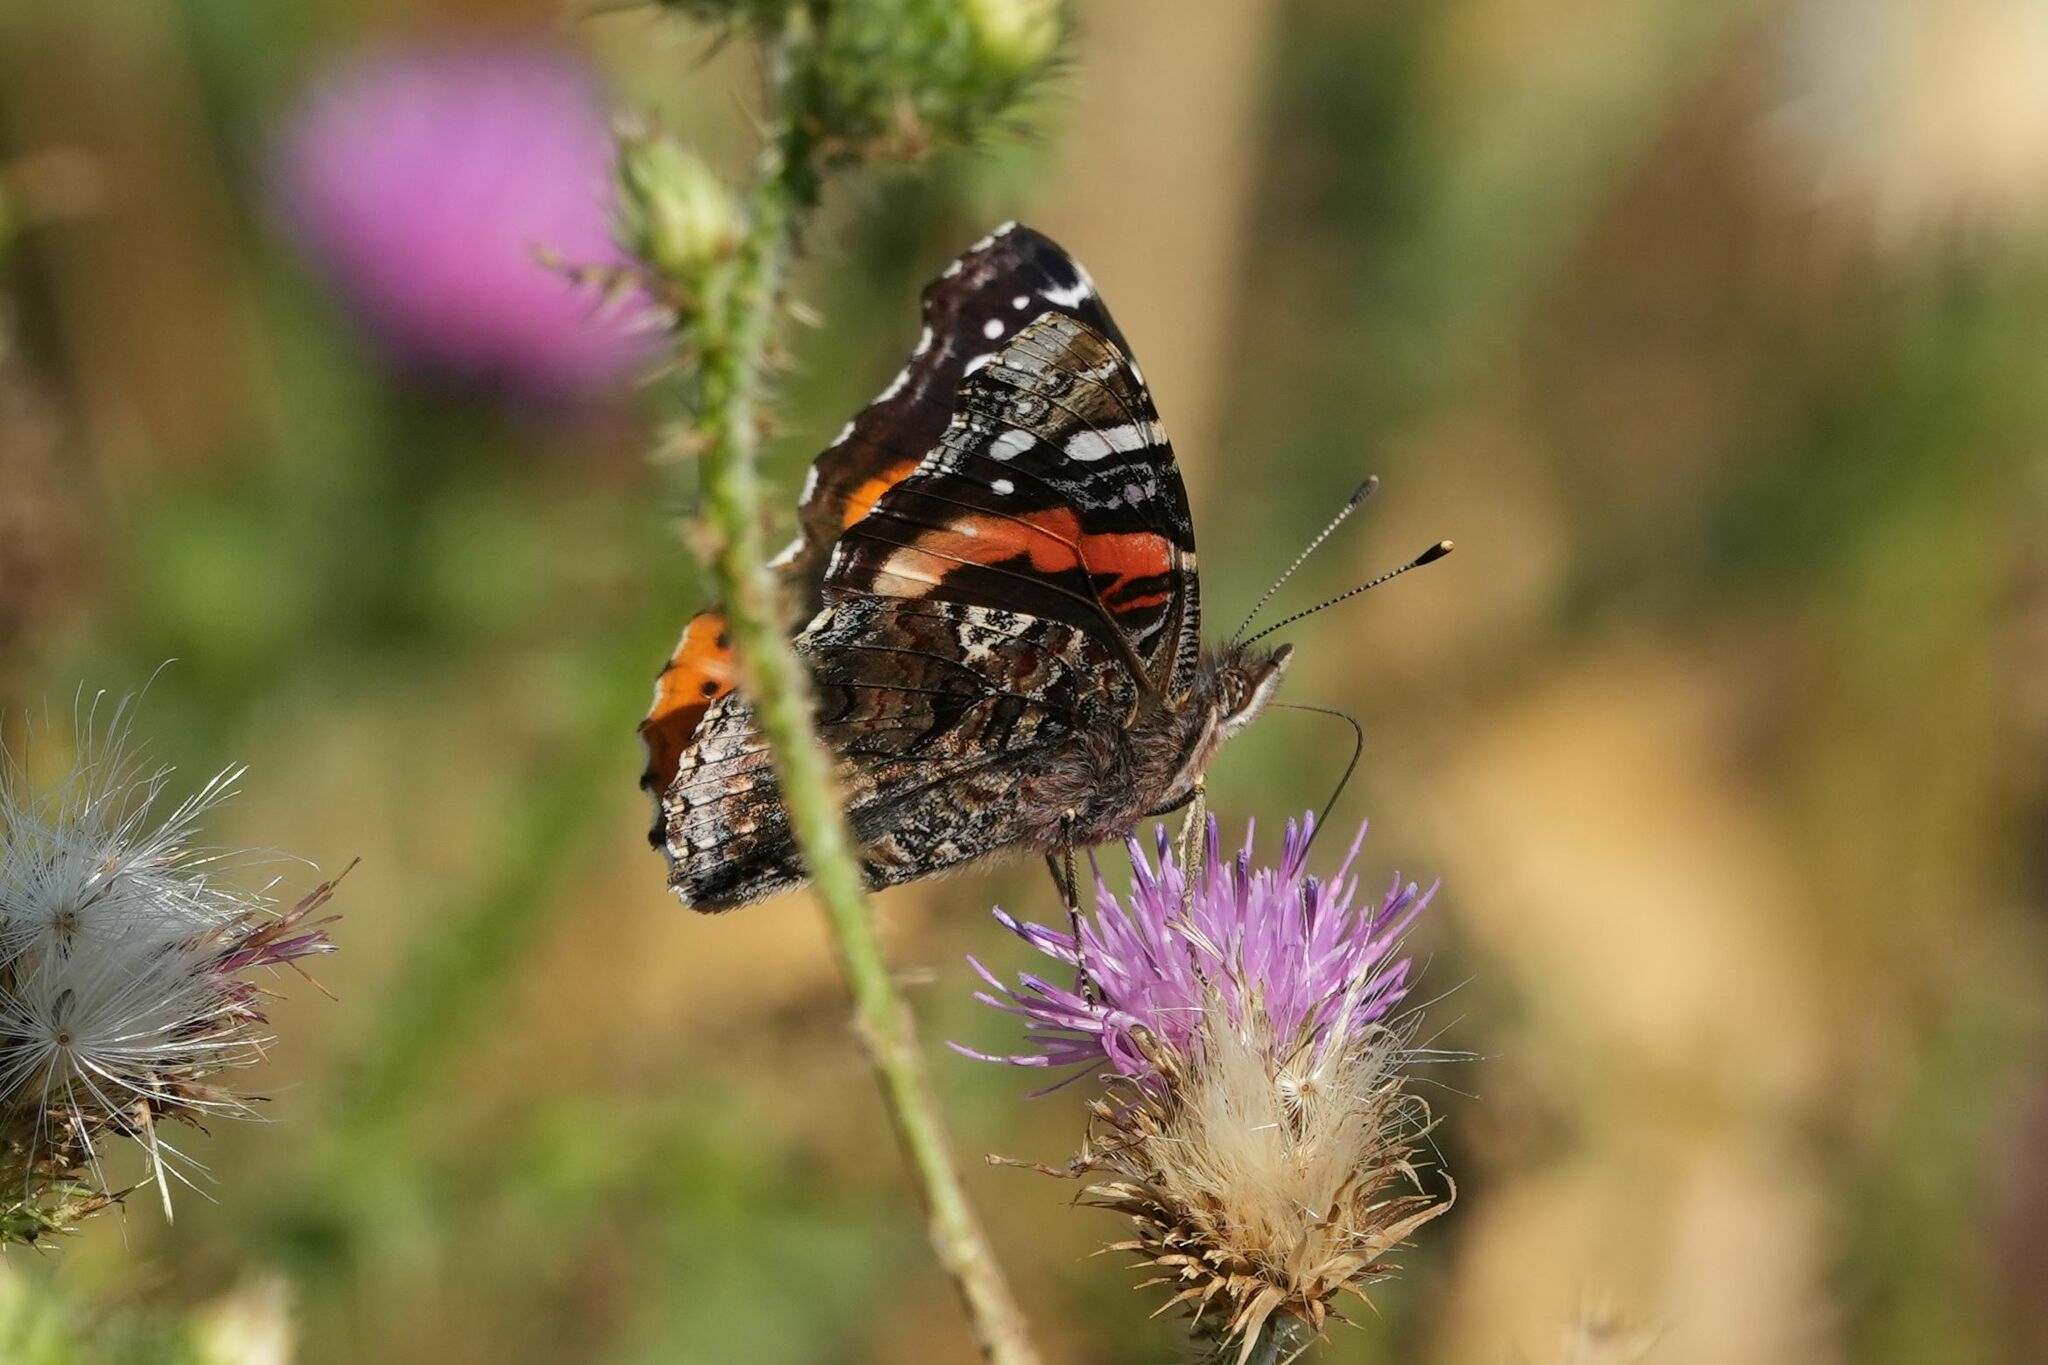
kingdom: Animalia
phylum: Arthropoda
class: Insecta
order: Lepidoptera
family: Nymphalidae
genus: Vanessa
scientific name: Vanessa atalanta
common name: Red admiral
